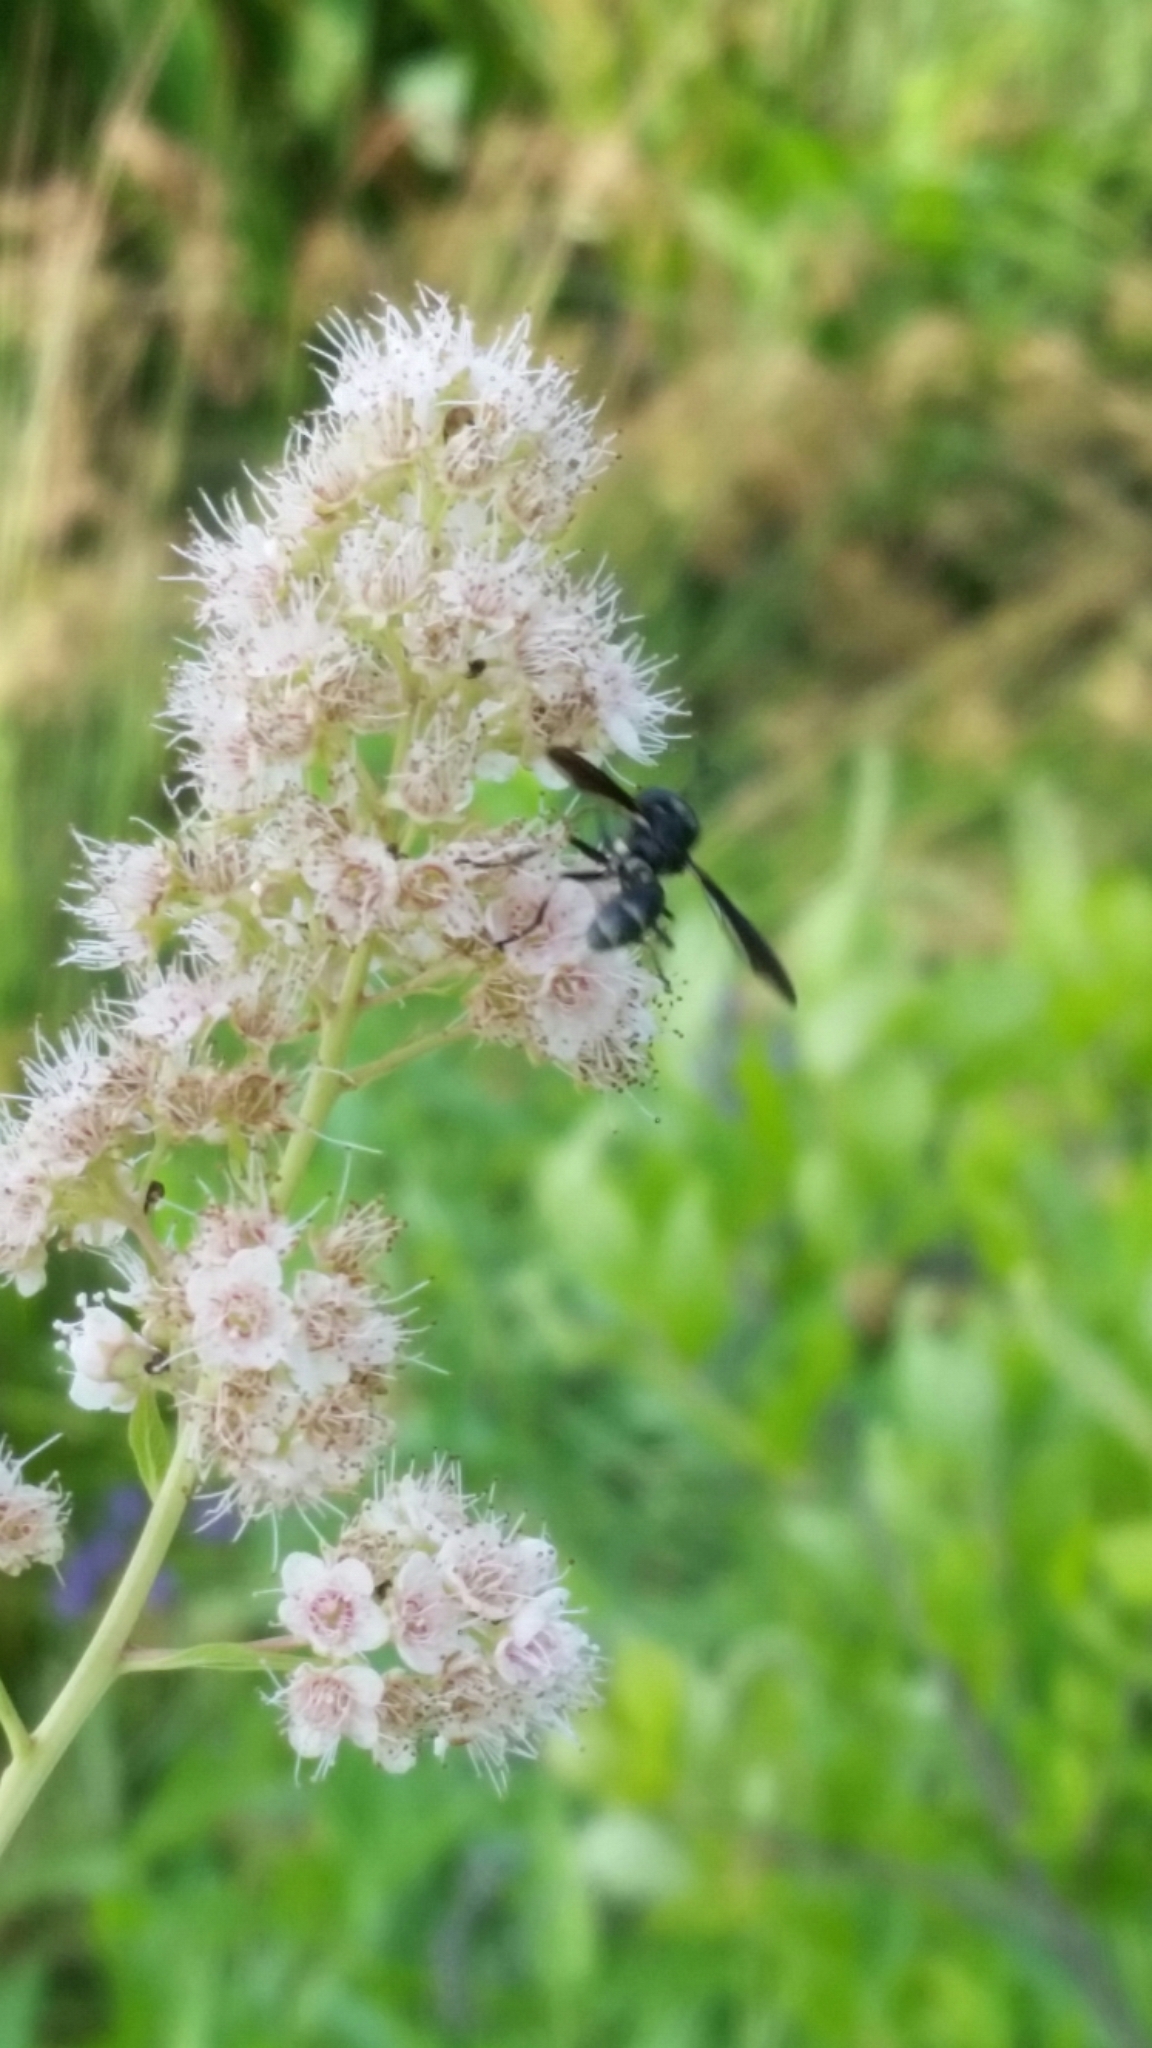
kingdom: Animalia
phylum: Arthropoda
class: Insecta
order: Diptera
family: Conopidae
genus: Physocephala
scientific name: Physocephala tibialis
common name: Common eastern physocephala
